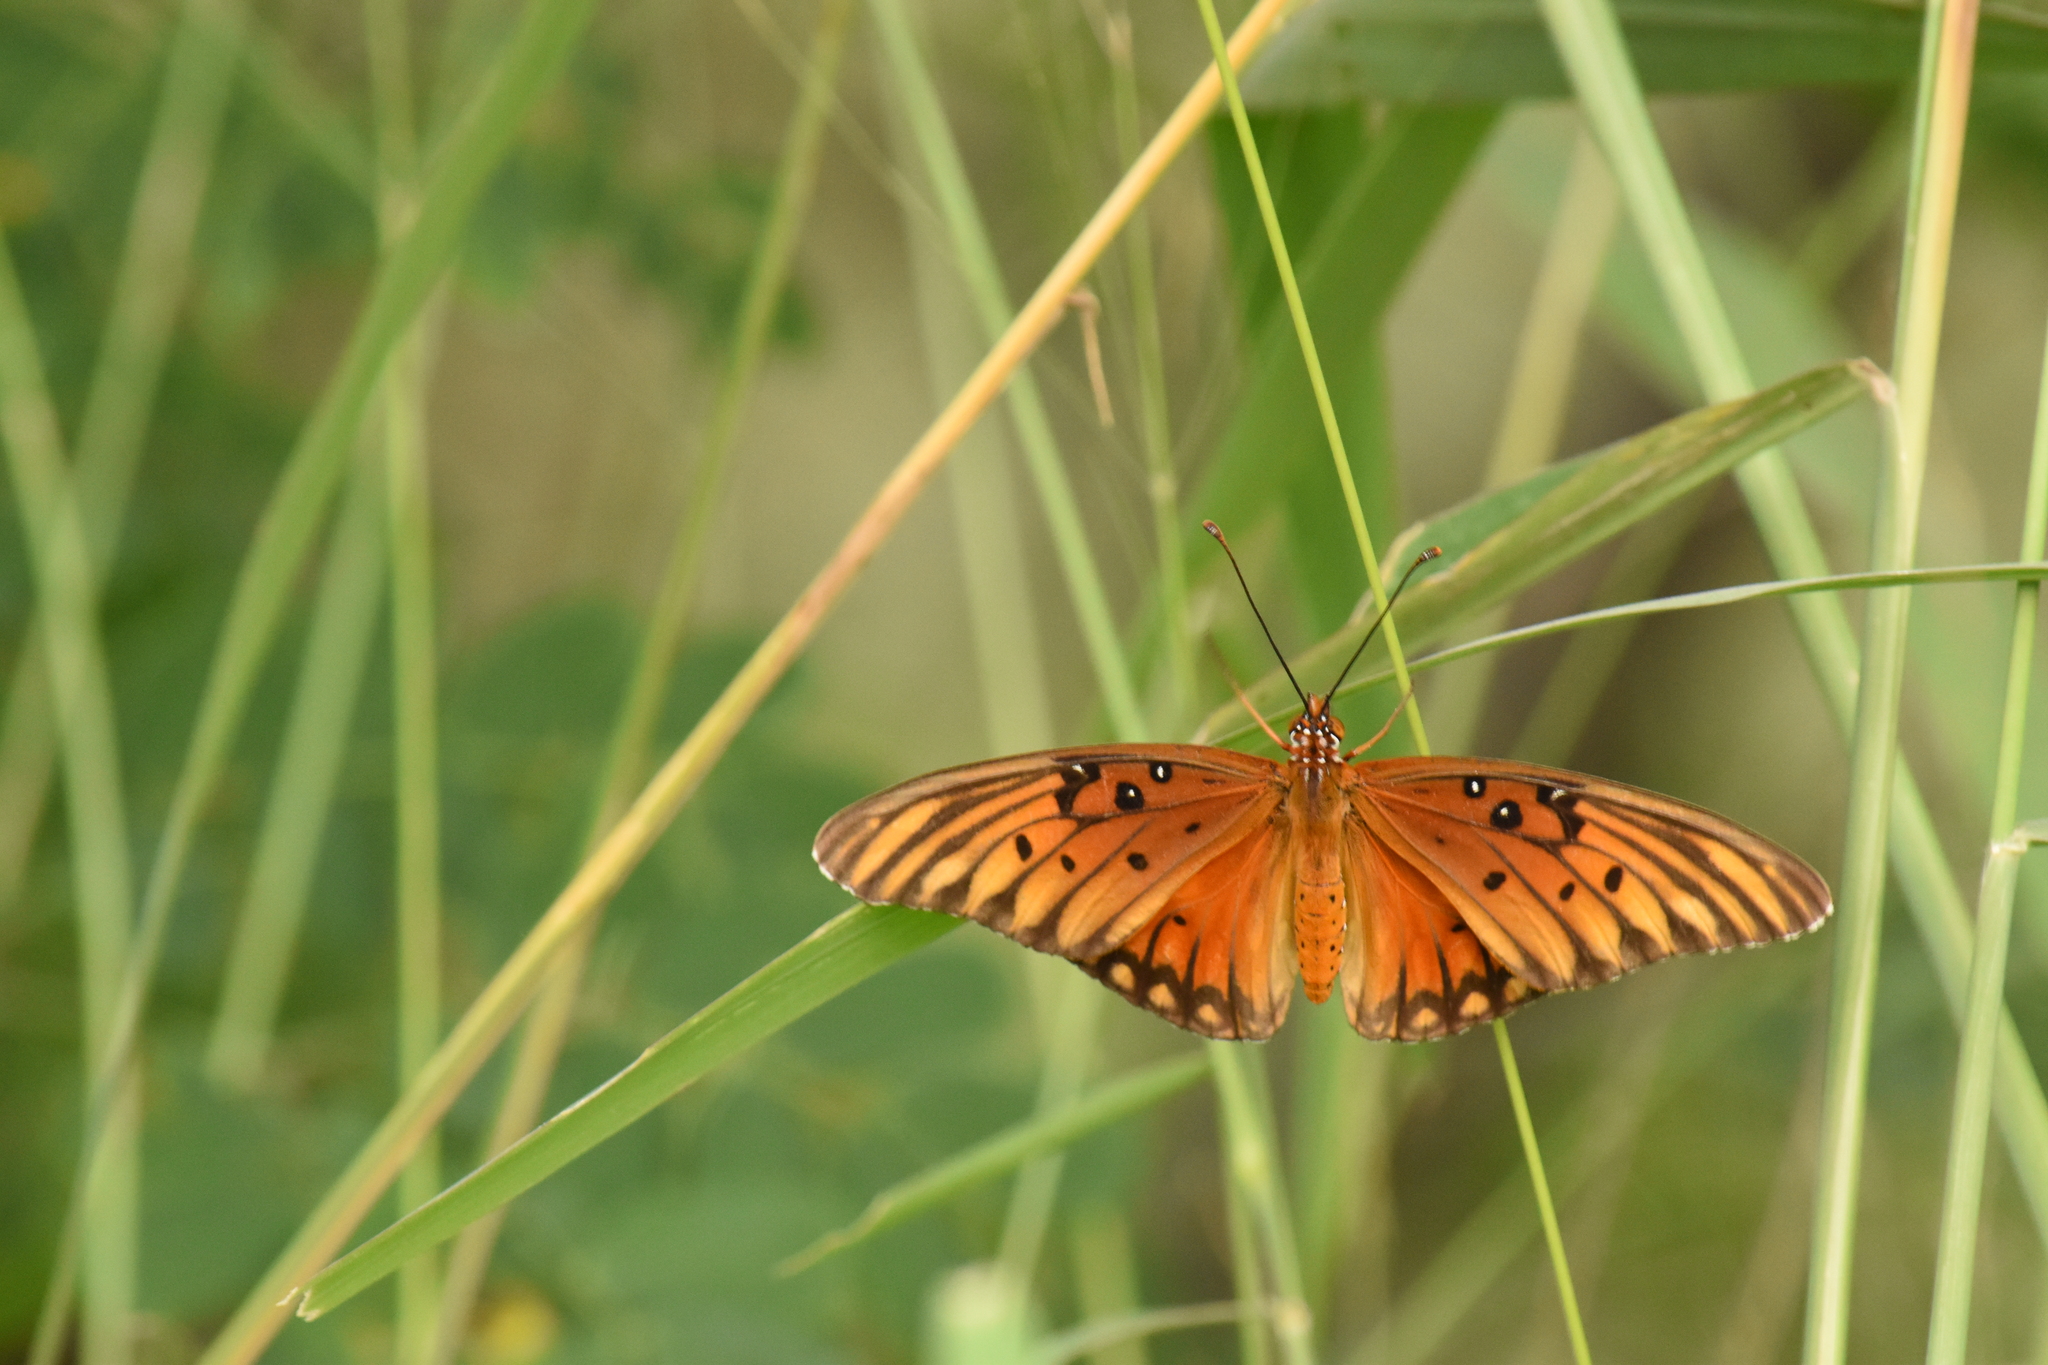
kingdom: Animalia
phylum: Arthropoda
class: Insecta
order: Lepidoptera
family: Nymphalidae
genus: Dione
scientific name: Dione vanillae
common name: Gulf fritillary
